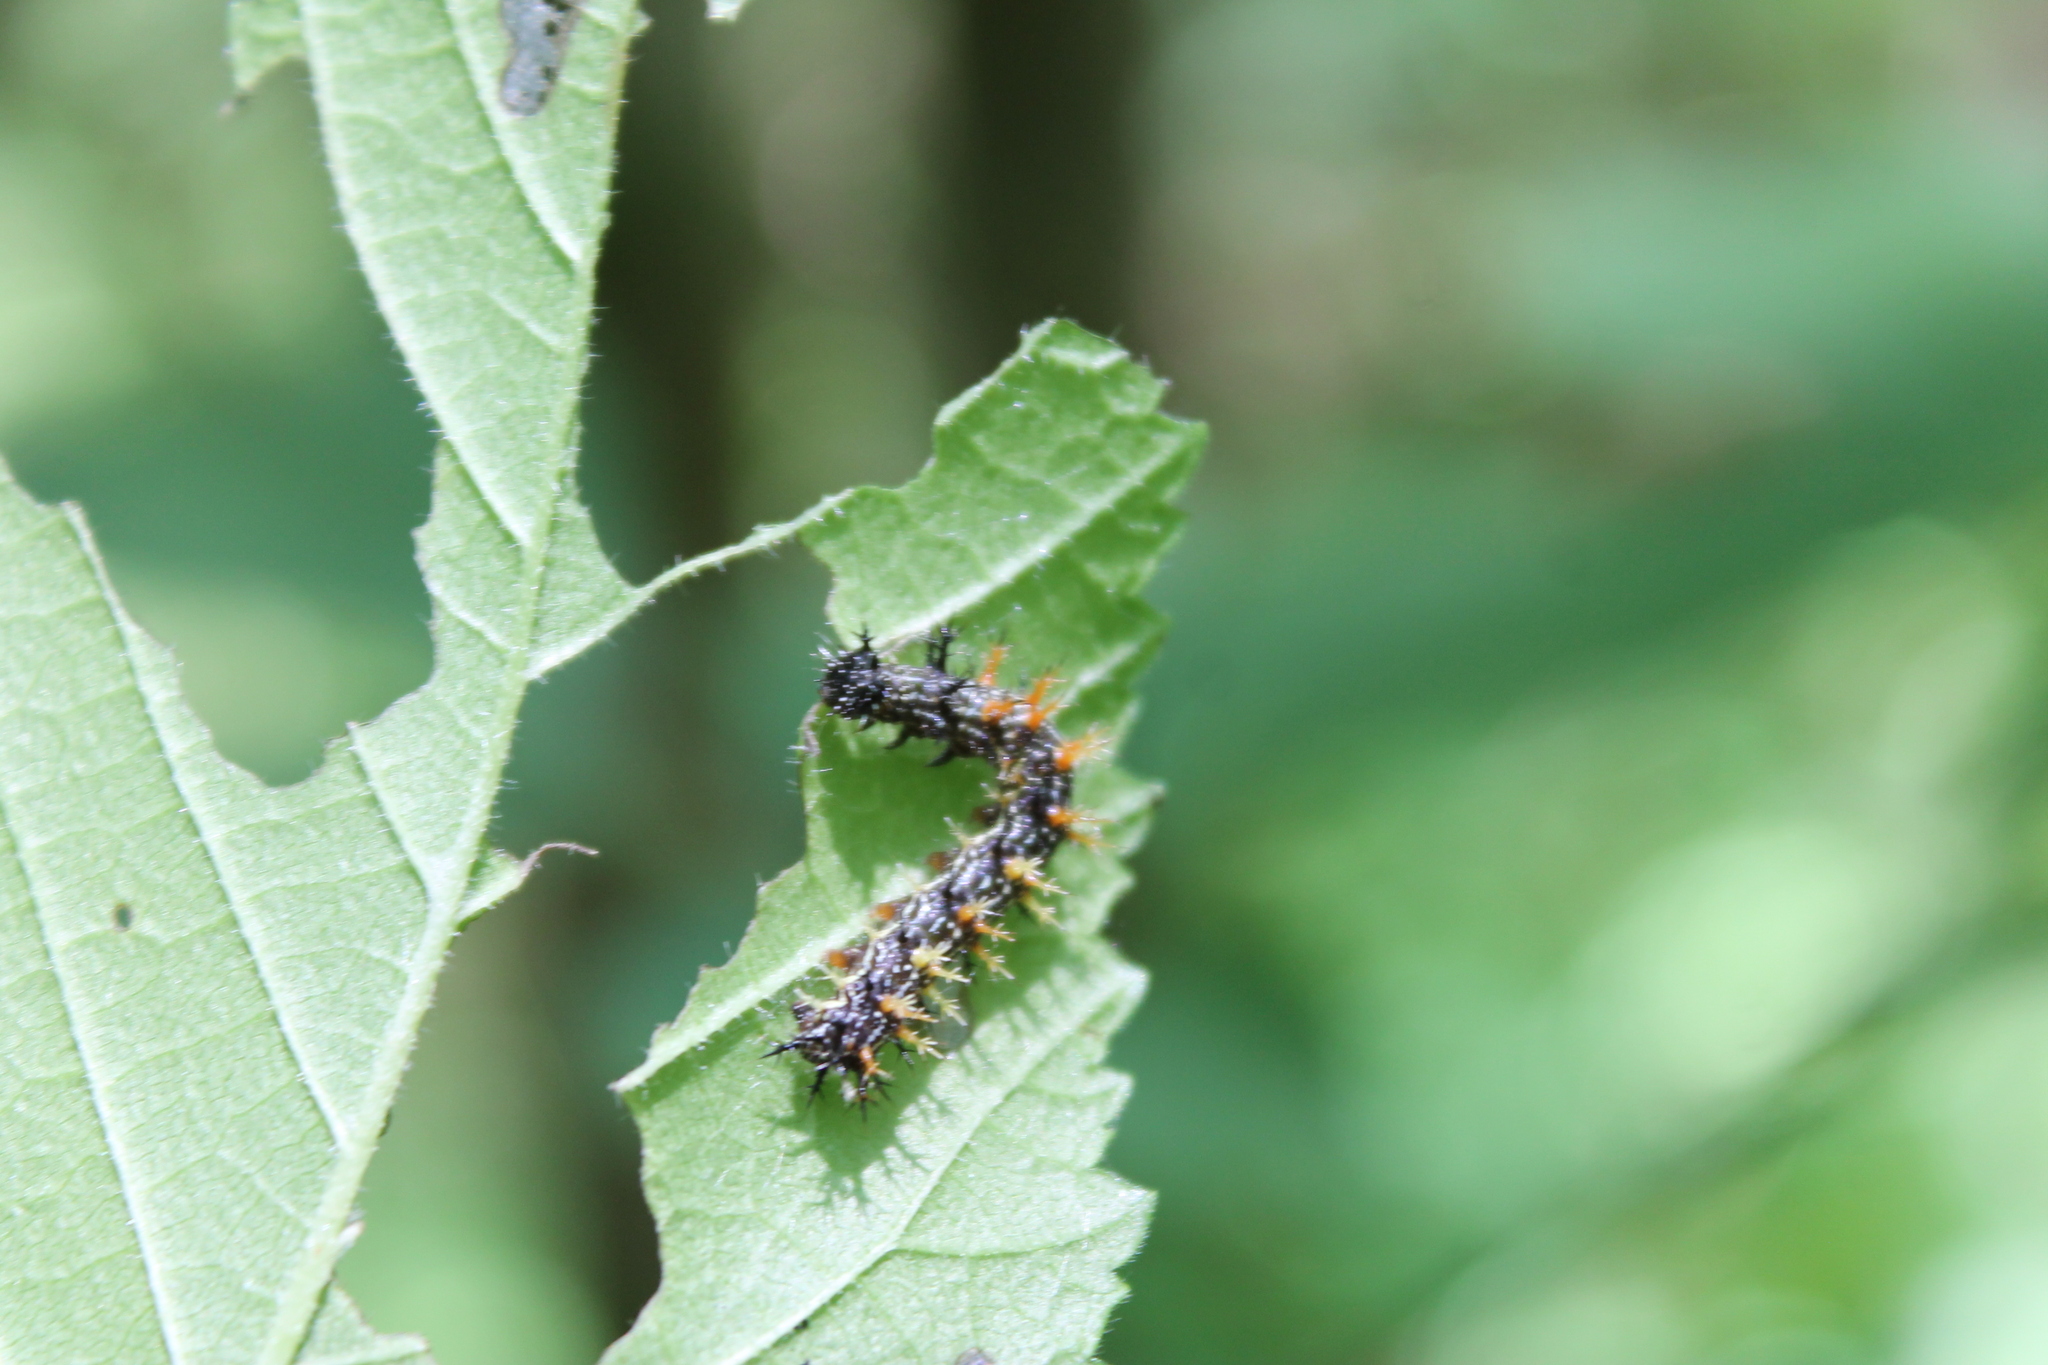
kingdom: Animalia
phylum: Arthropoda
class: Insecta
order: Lepidoptera
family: Nymphalidae
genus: Polygonia
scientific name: Polygonia interrogationis
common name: Question mark
